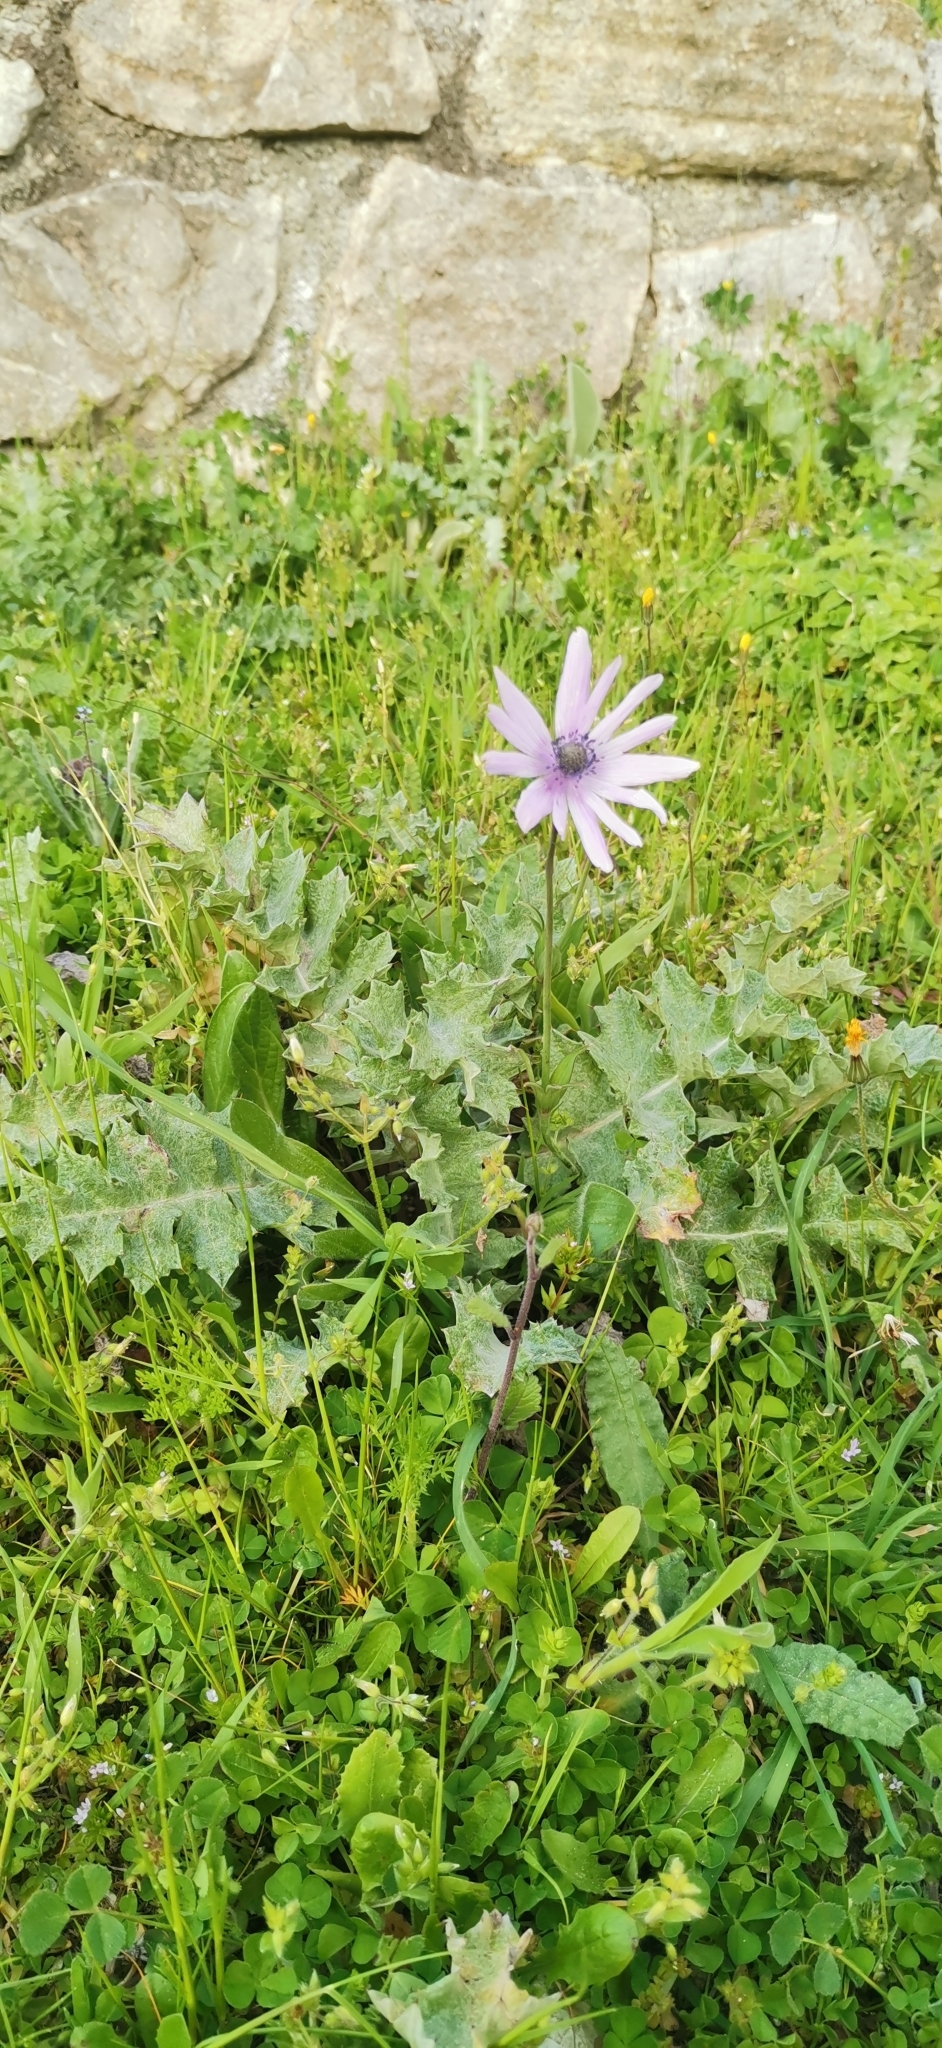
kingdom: Plantae
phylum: Tracheophyta
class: Magnoliopsida
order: Ranunculales
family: Ranunculaceae
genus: Anemone
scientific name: Anemone hortensis
